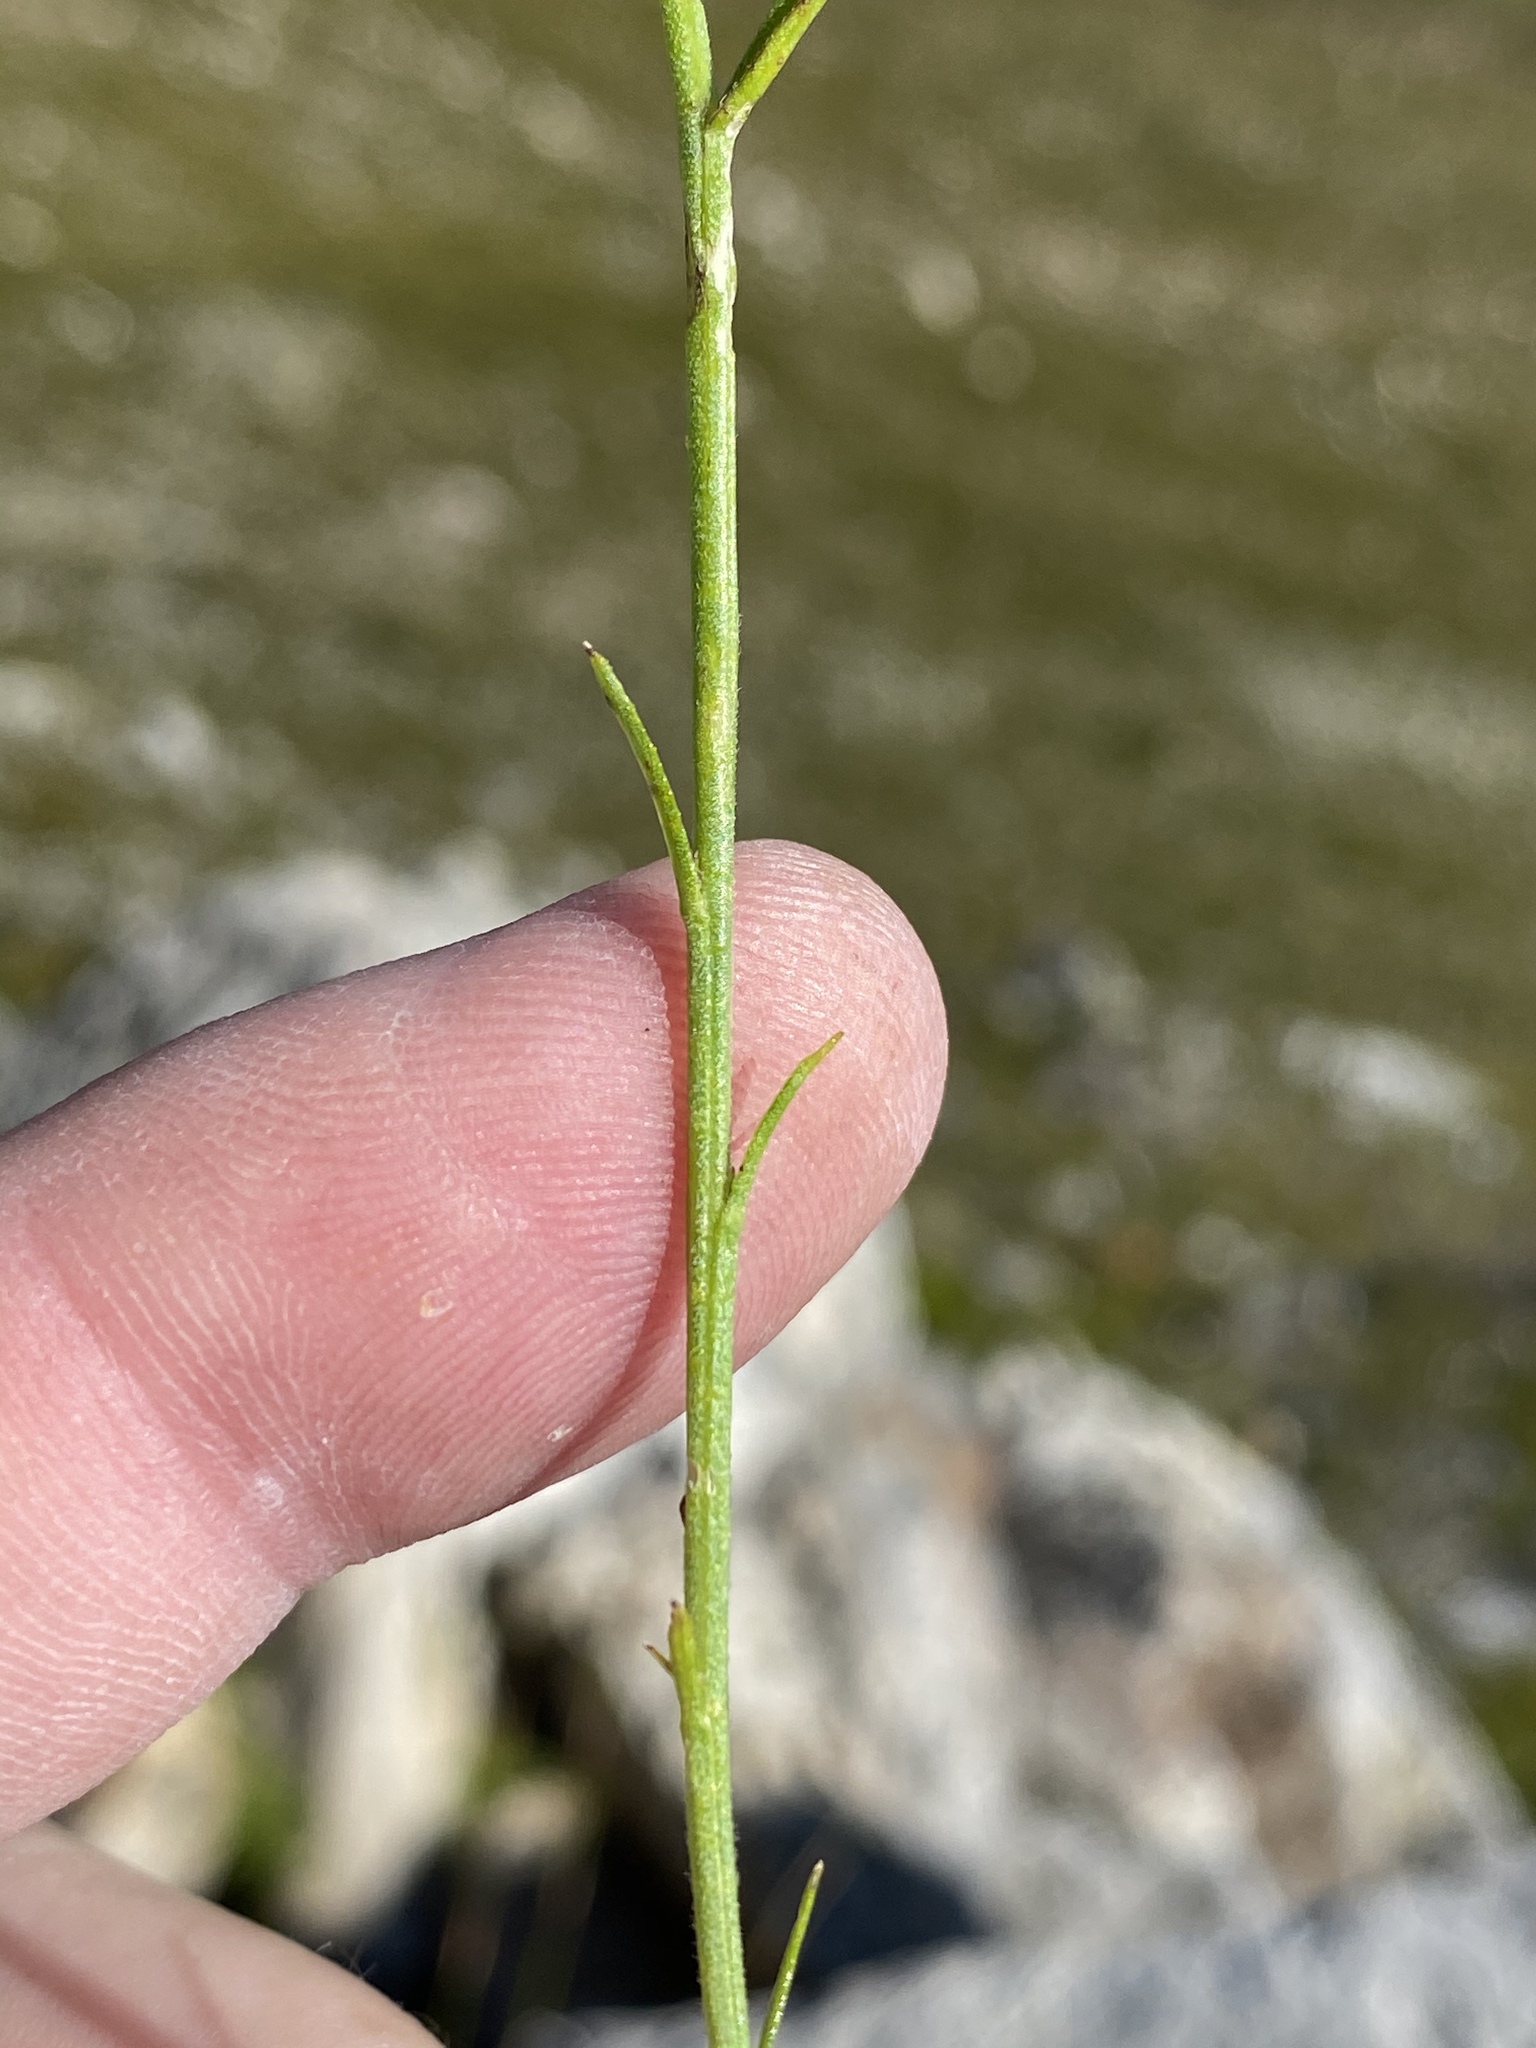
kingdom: Plantae
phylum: Tracheophyta
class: Magnoliopsida
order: Asterales
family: Campanulaceae
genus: Lobelia
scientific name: Lobelia linearis
